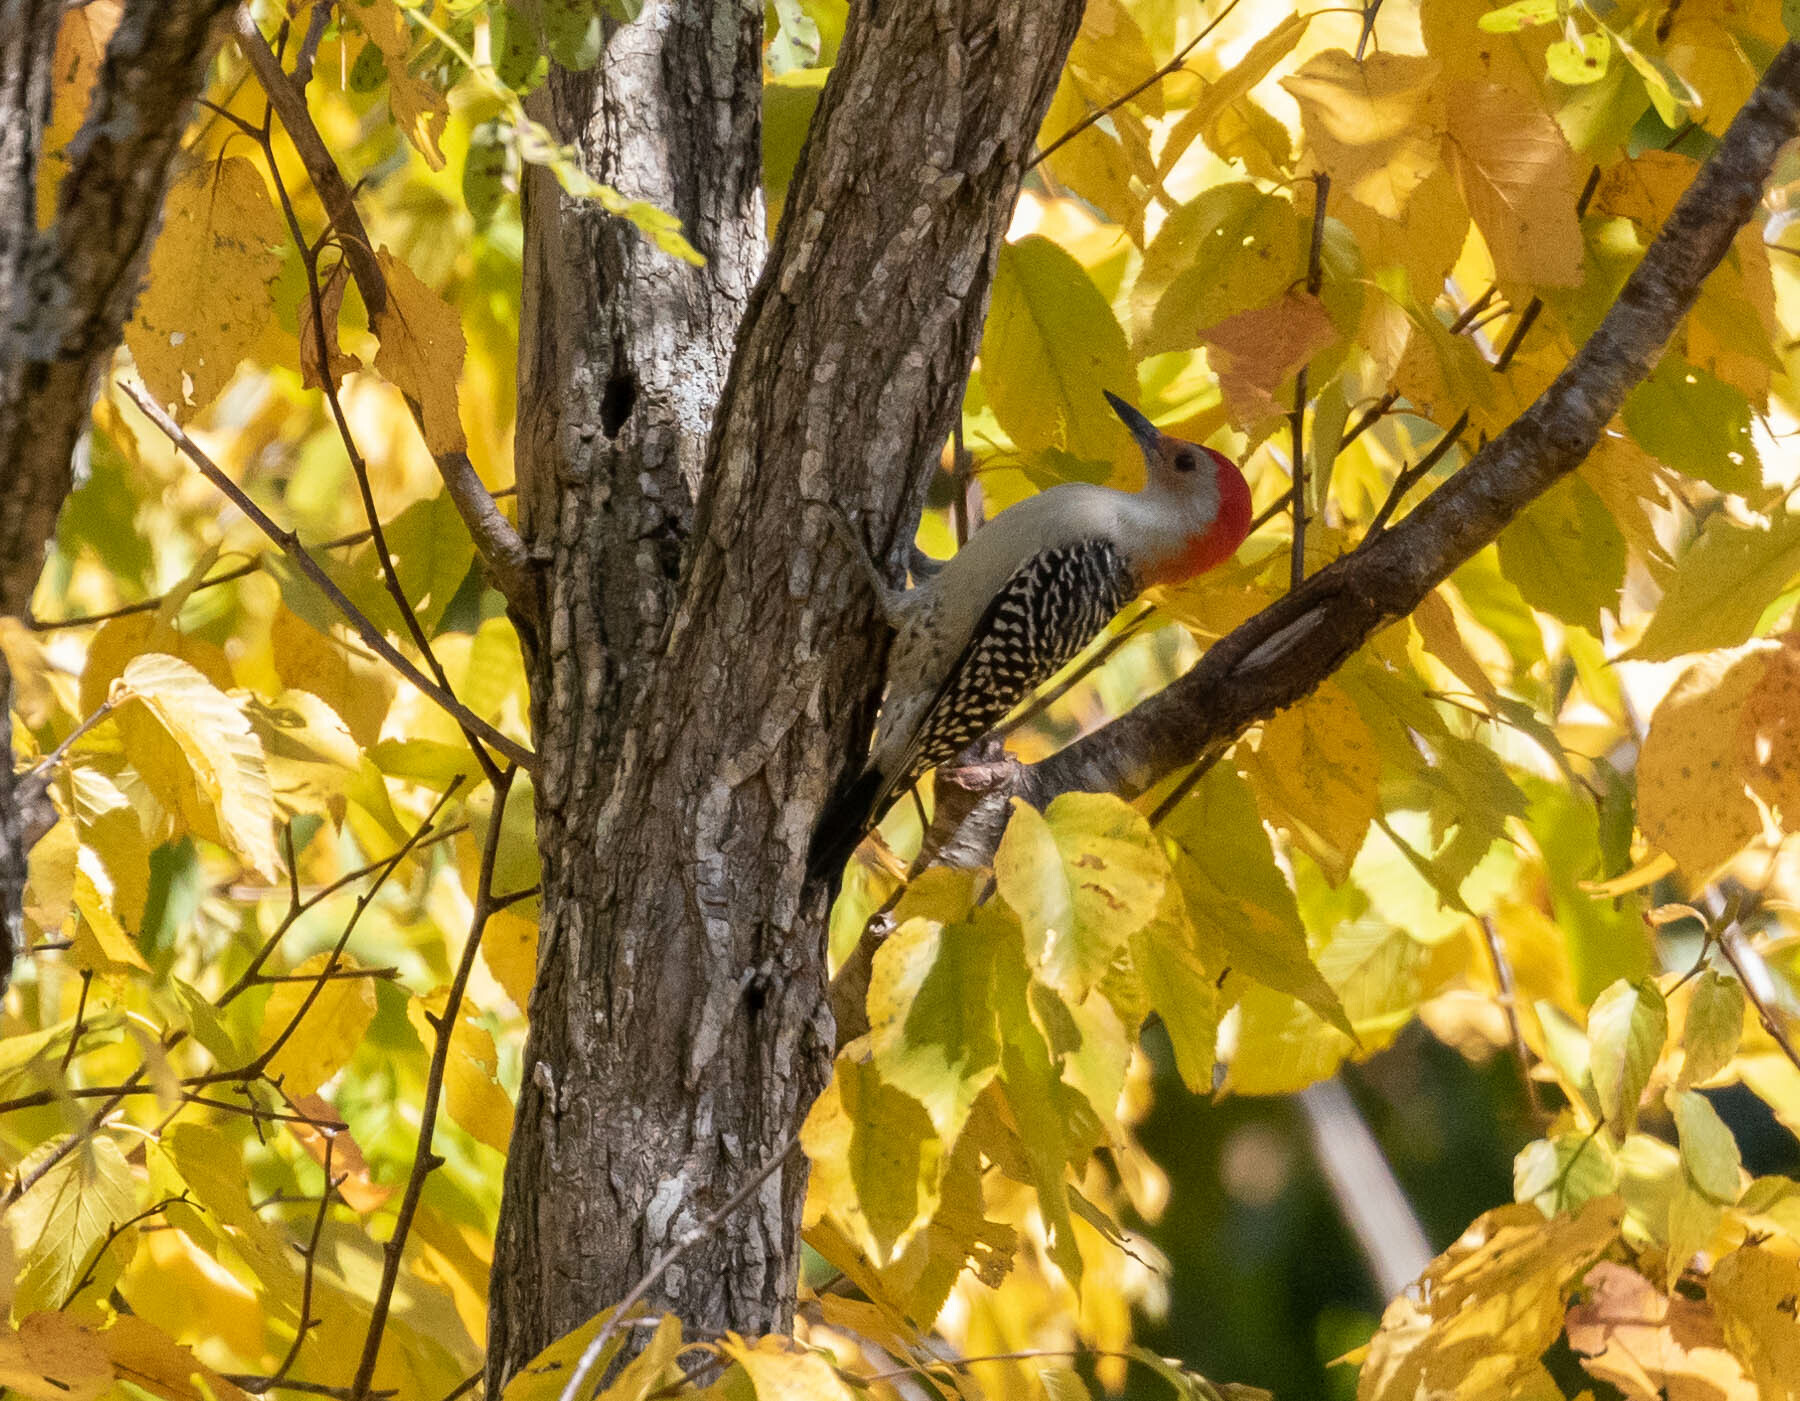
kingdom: Animalia
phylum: Chordata
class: Aves
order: Piciformes
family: Picidae
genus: Melanerpes
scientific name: Melanerpes carolinus
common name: Red-bellied woodpecker
